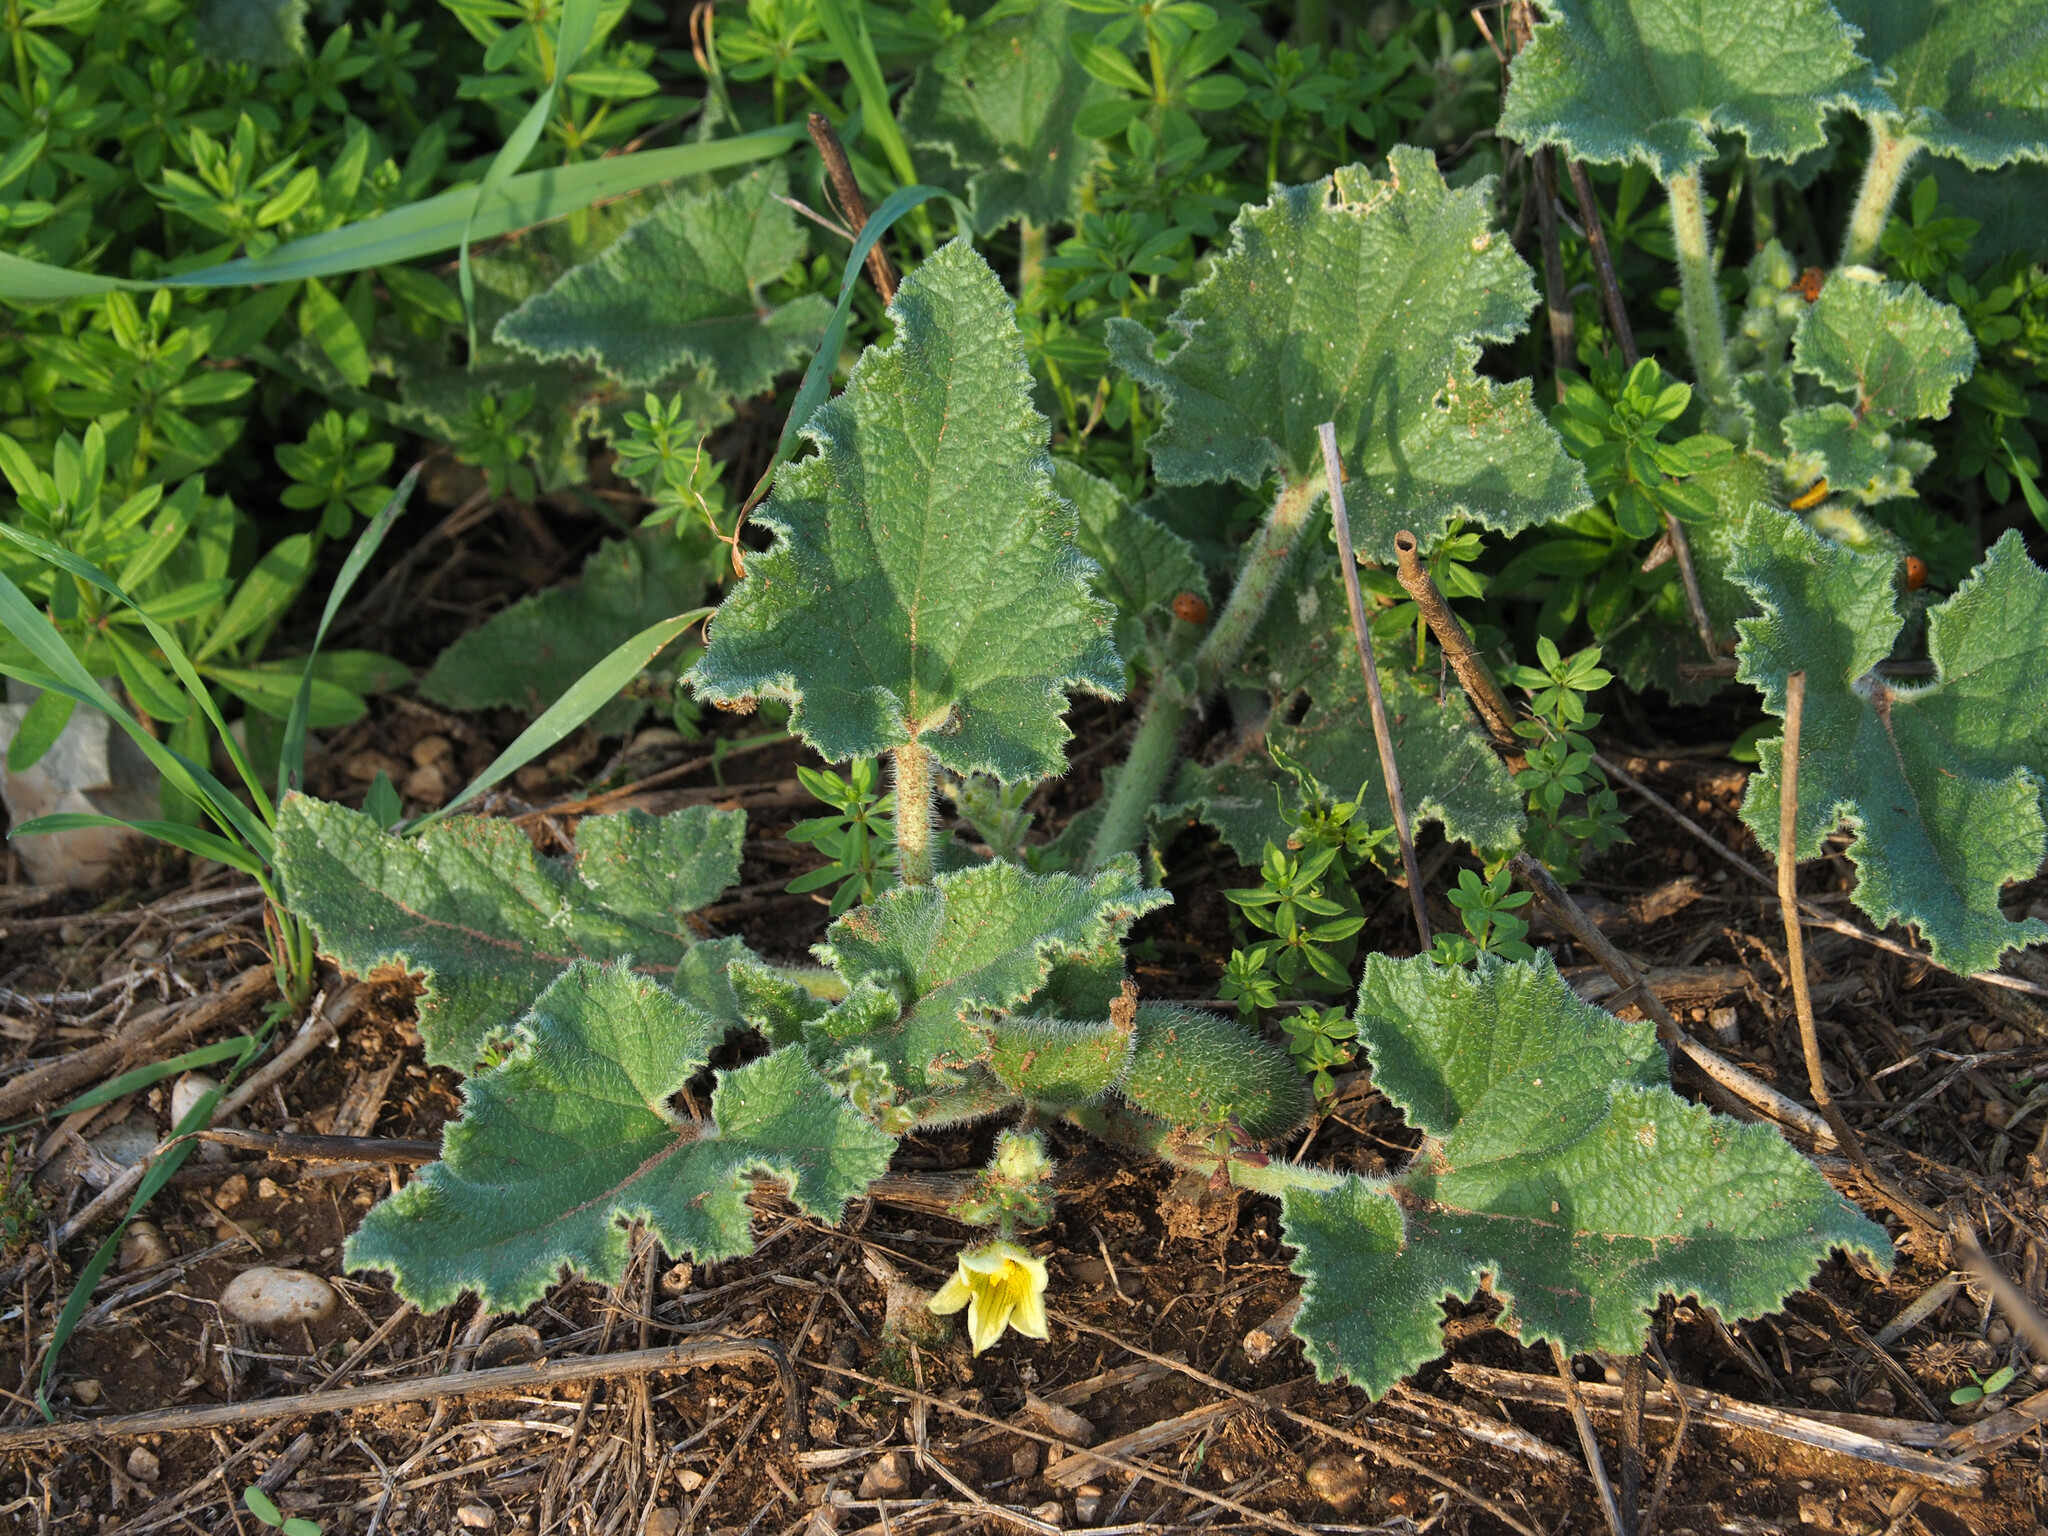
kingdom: Plantae
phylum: Tracheophyta
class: Magnoliopsida
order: Cucurbitales
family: Cucurbitaceae
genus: Ecballium
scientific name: Ecballium elaterium
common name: Squirting cucumber
